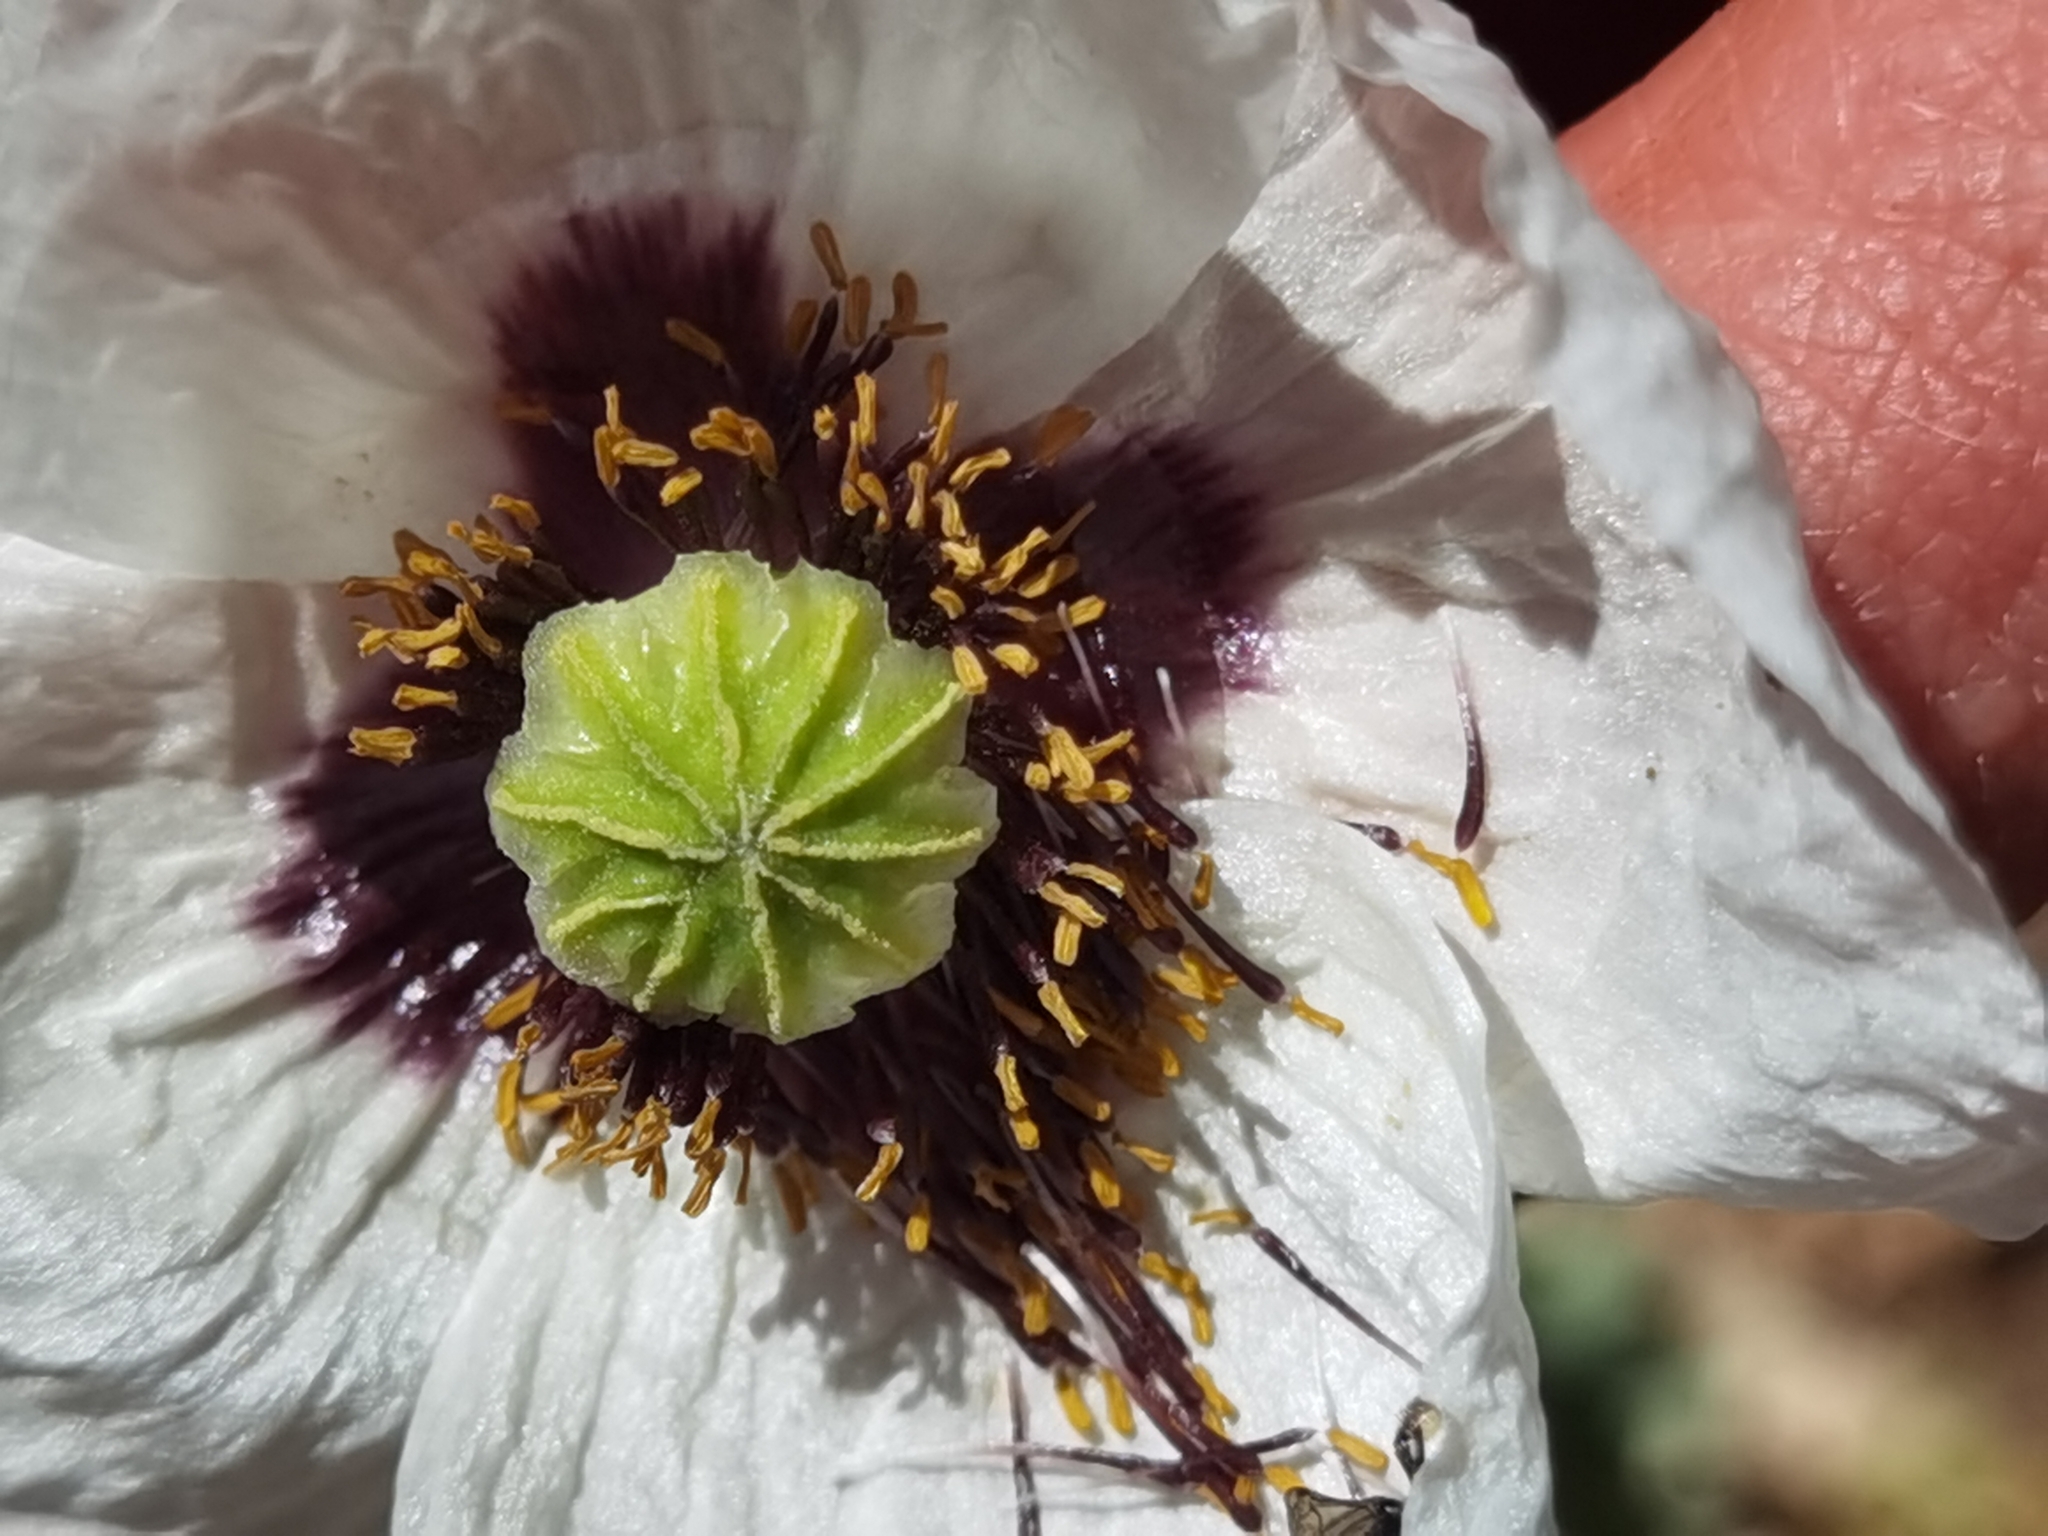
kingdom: Plantae
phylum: Tracheophyta
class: Magnoliopsida
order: Ranunculales
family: Papaveraceae
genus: Papaver
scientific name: Papaver somniferum
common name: Opium poppy
